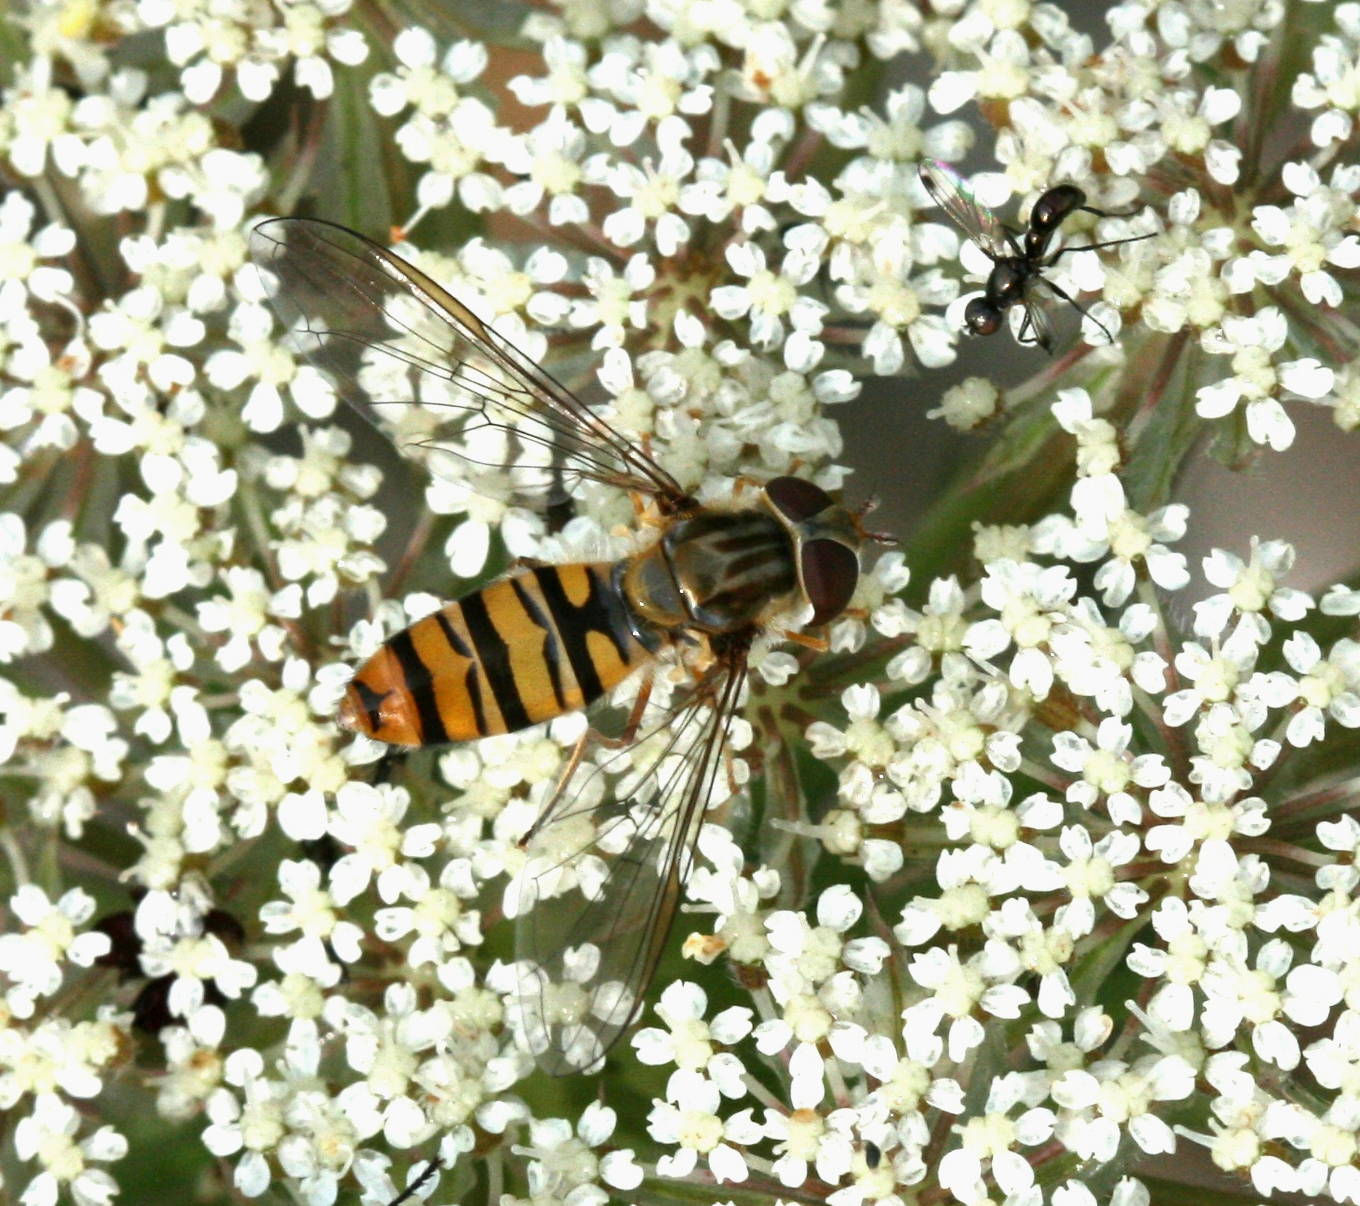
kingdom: Animalia
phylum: Arthropoda
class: Insecta
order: Diptera
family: Syrphidae
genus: Episyrphus
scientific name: Episyrphus balteatus
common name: Marmalade hoverfly
